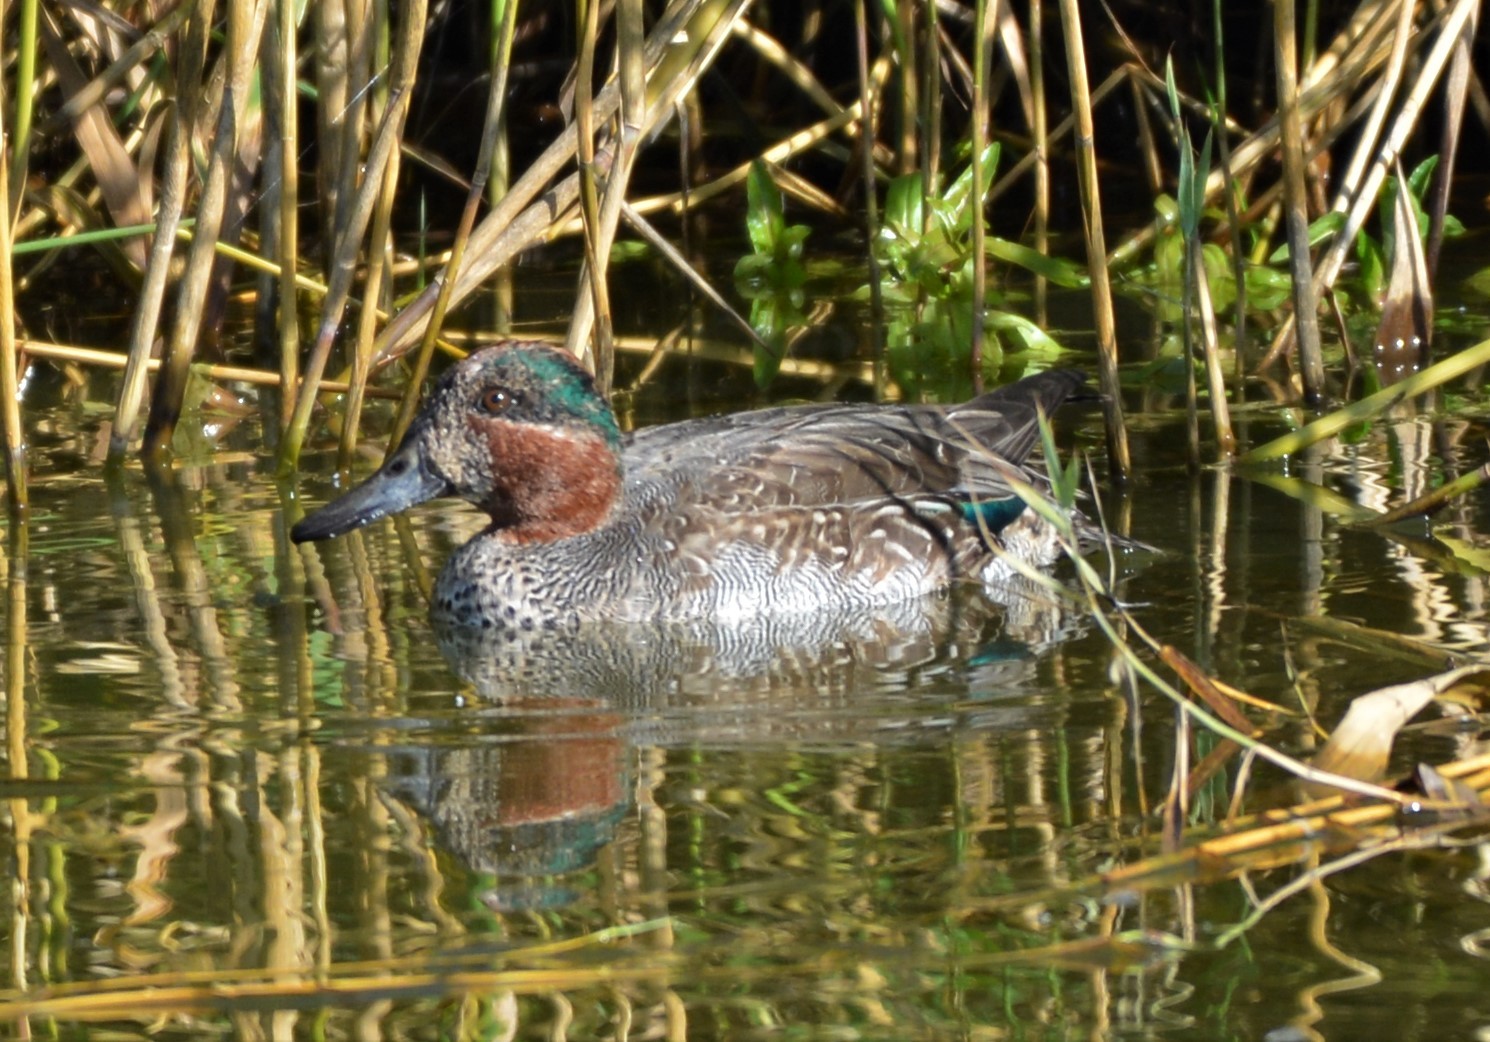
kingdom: Animalia
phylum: Chordata
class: Aves
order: Anseriformes
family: Anatidae
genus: Anas
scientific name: Anas crecca
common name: Eurasian teal
